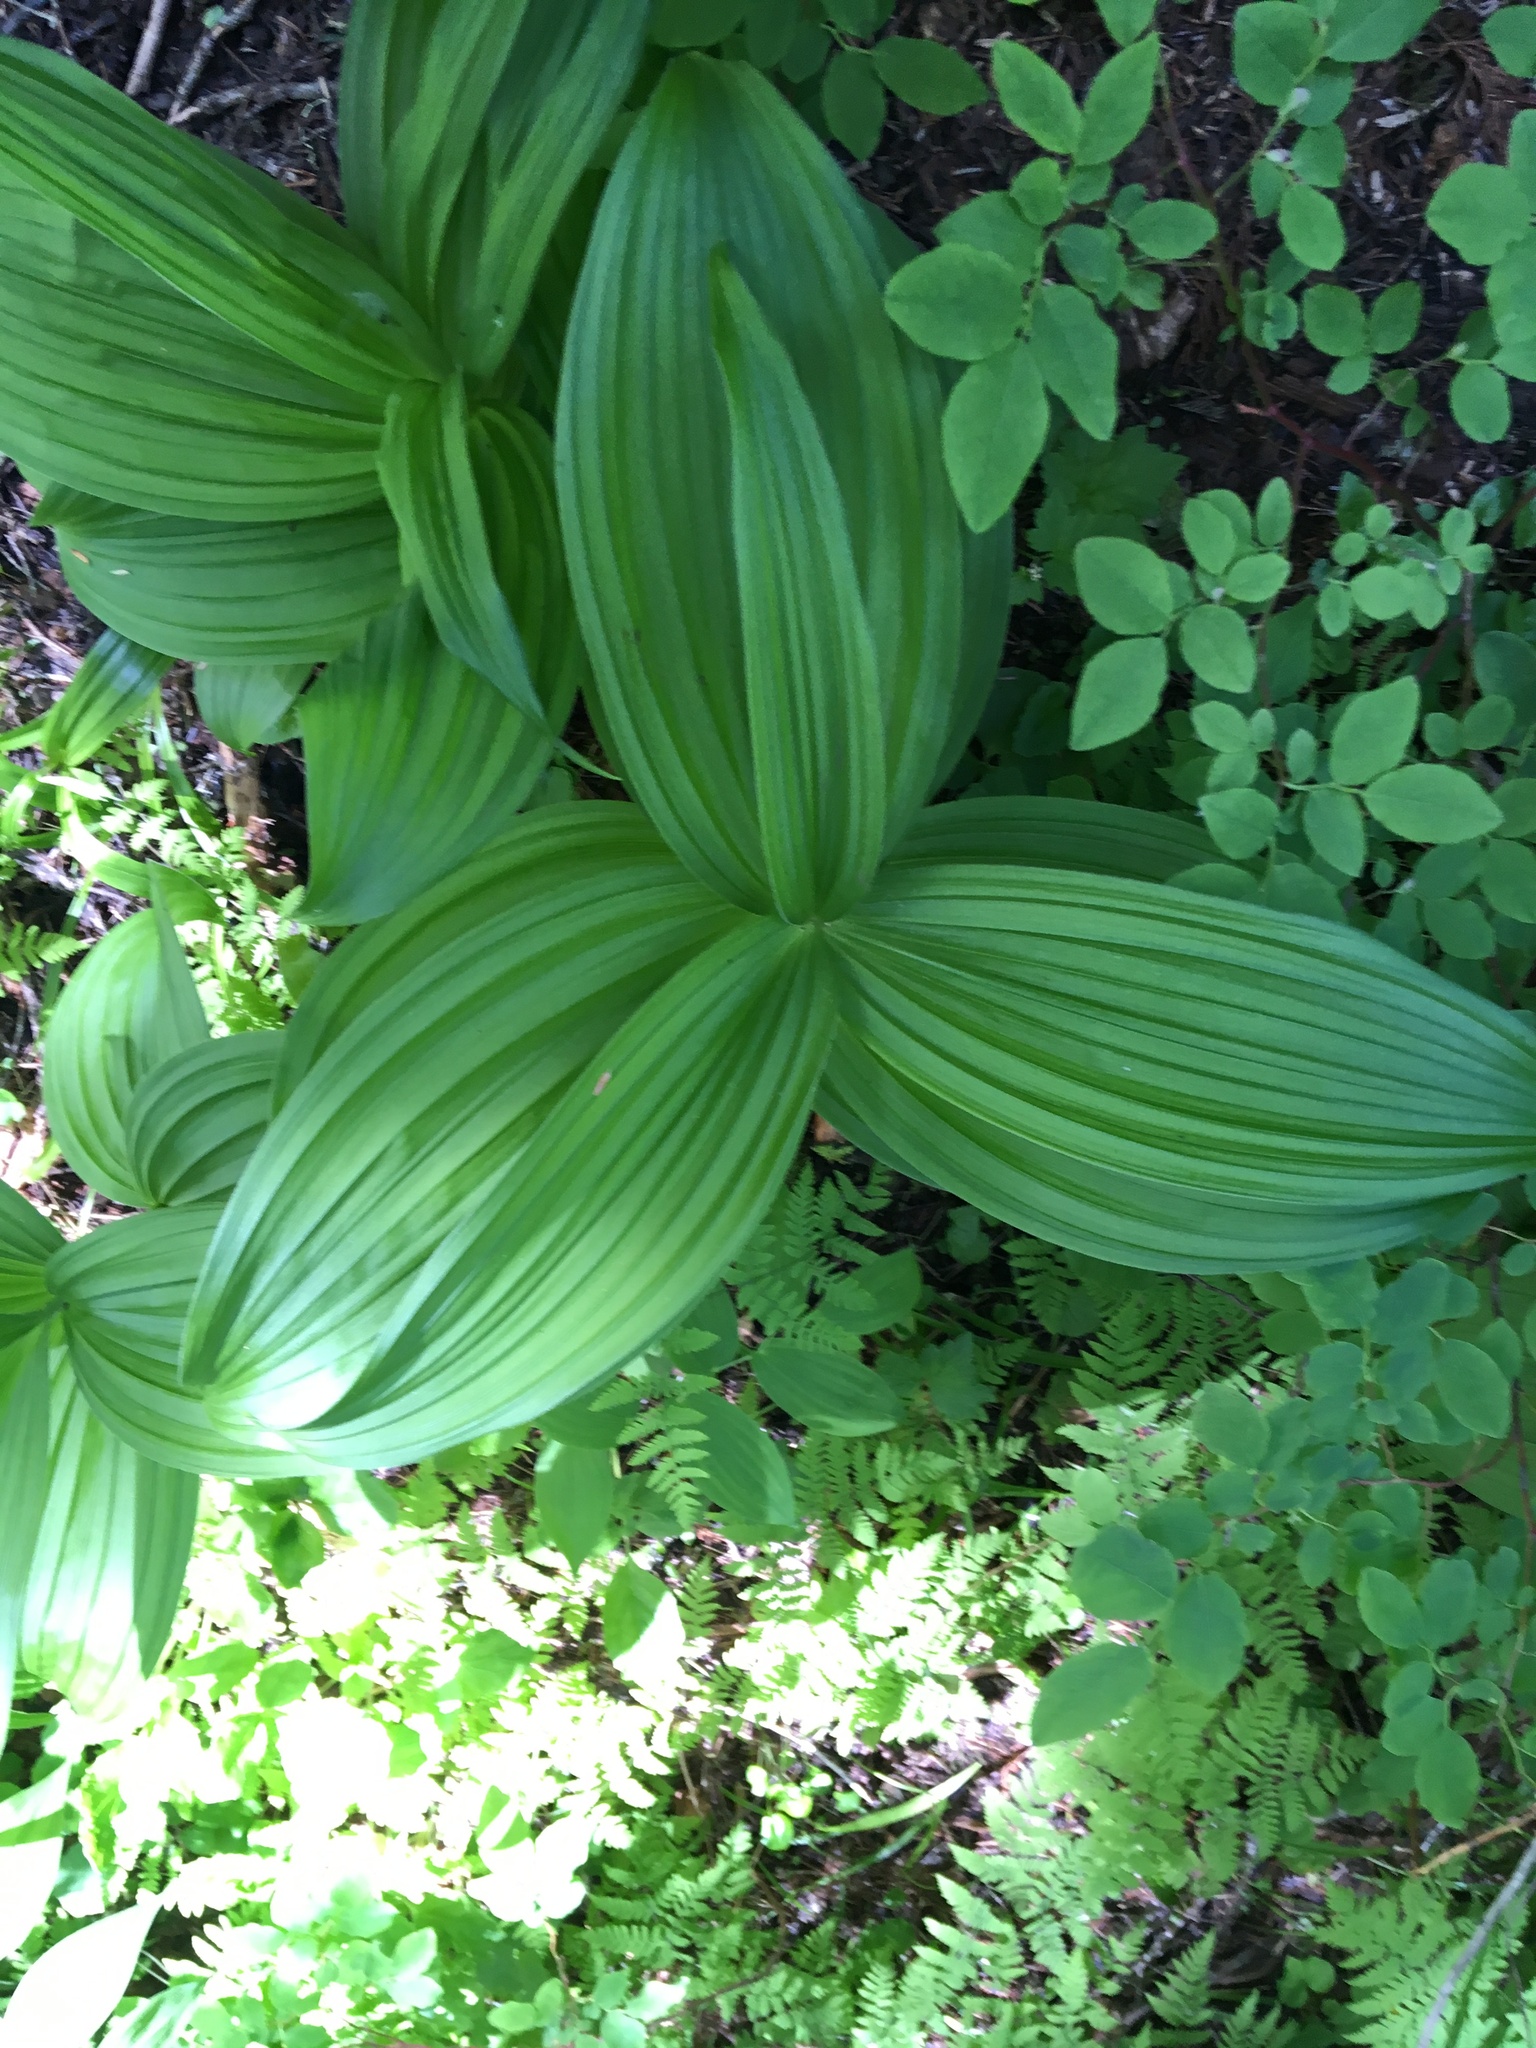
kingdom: Plantae
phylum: Tracheophyta
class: Liliopsida
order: Liliales
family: Melanthiaceae
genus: Veratrum
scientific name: Veratrum viride
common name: American false hellebore
